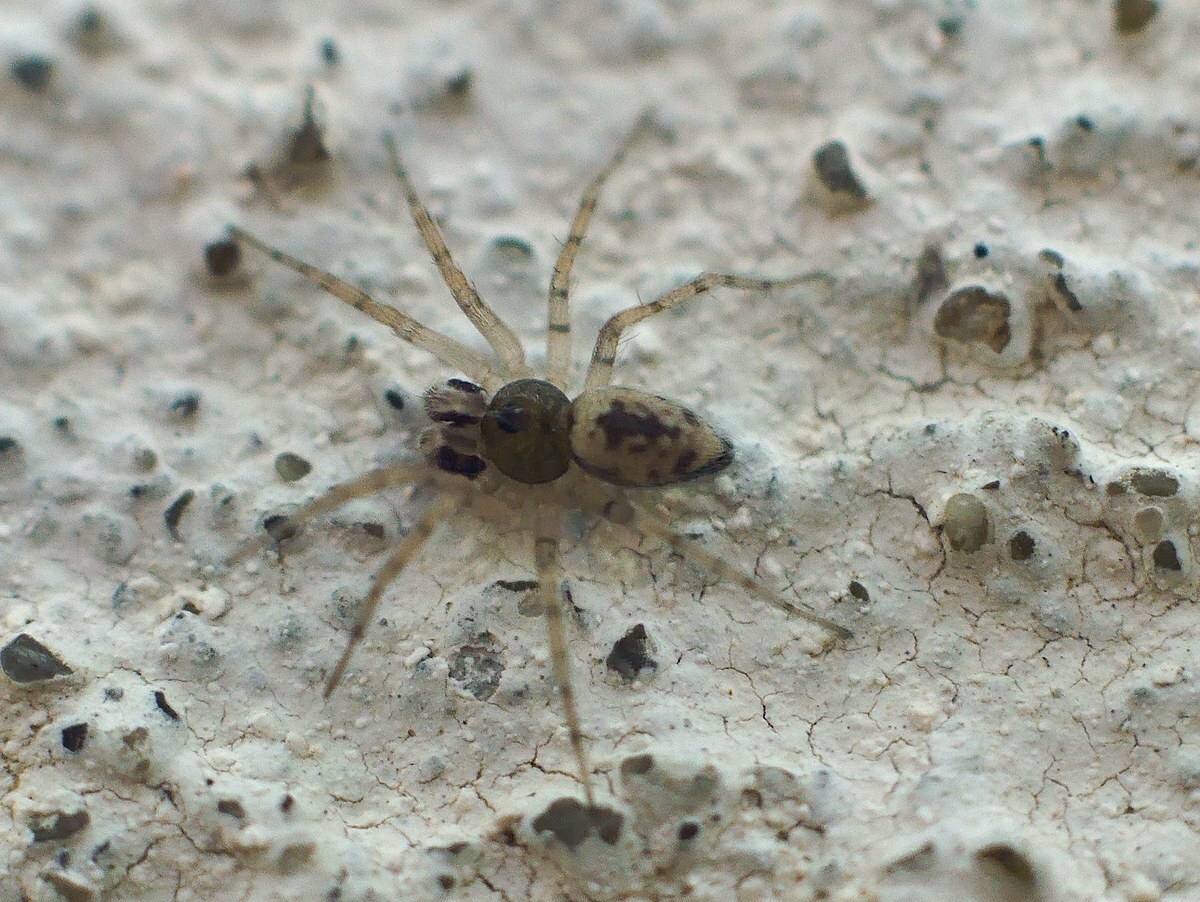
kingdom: Animalia
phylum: Arthropoda
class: Arachnida
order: Araneae
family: Oecobiidae
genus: Oecobius
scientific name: Oecobius maculatus
